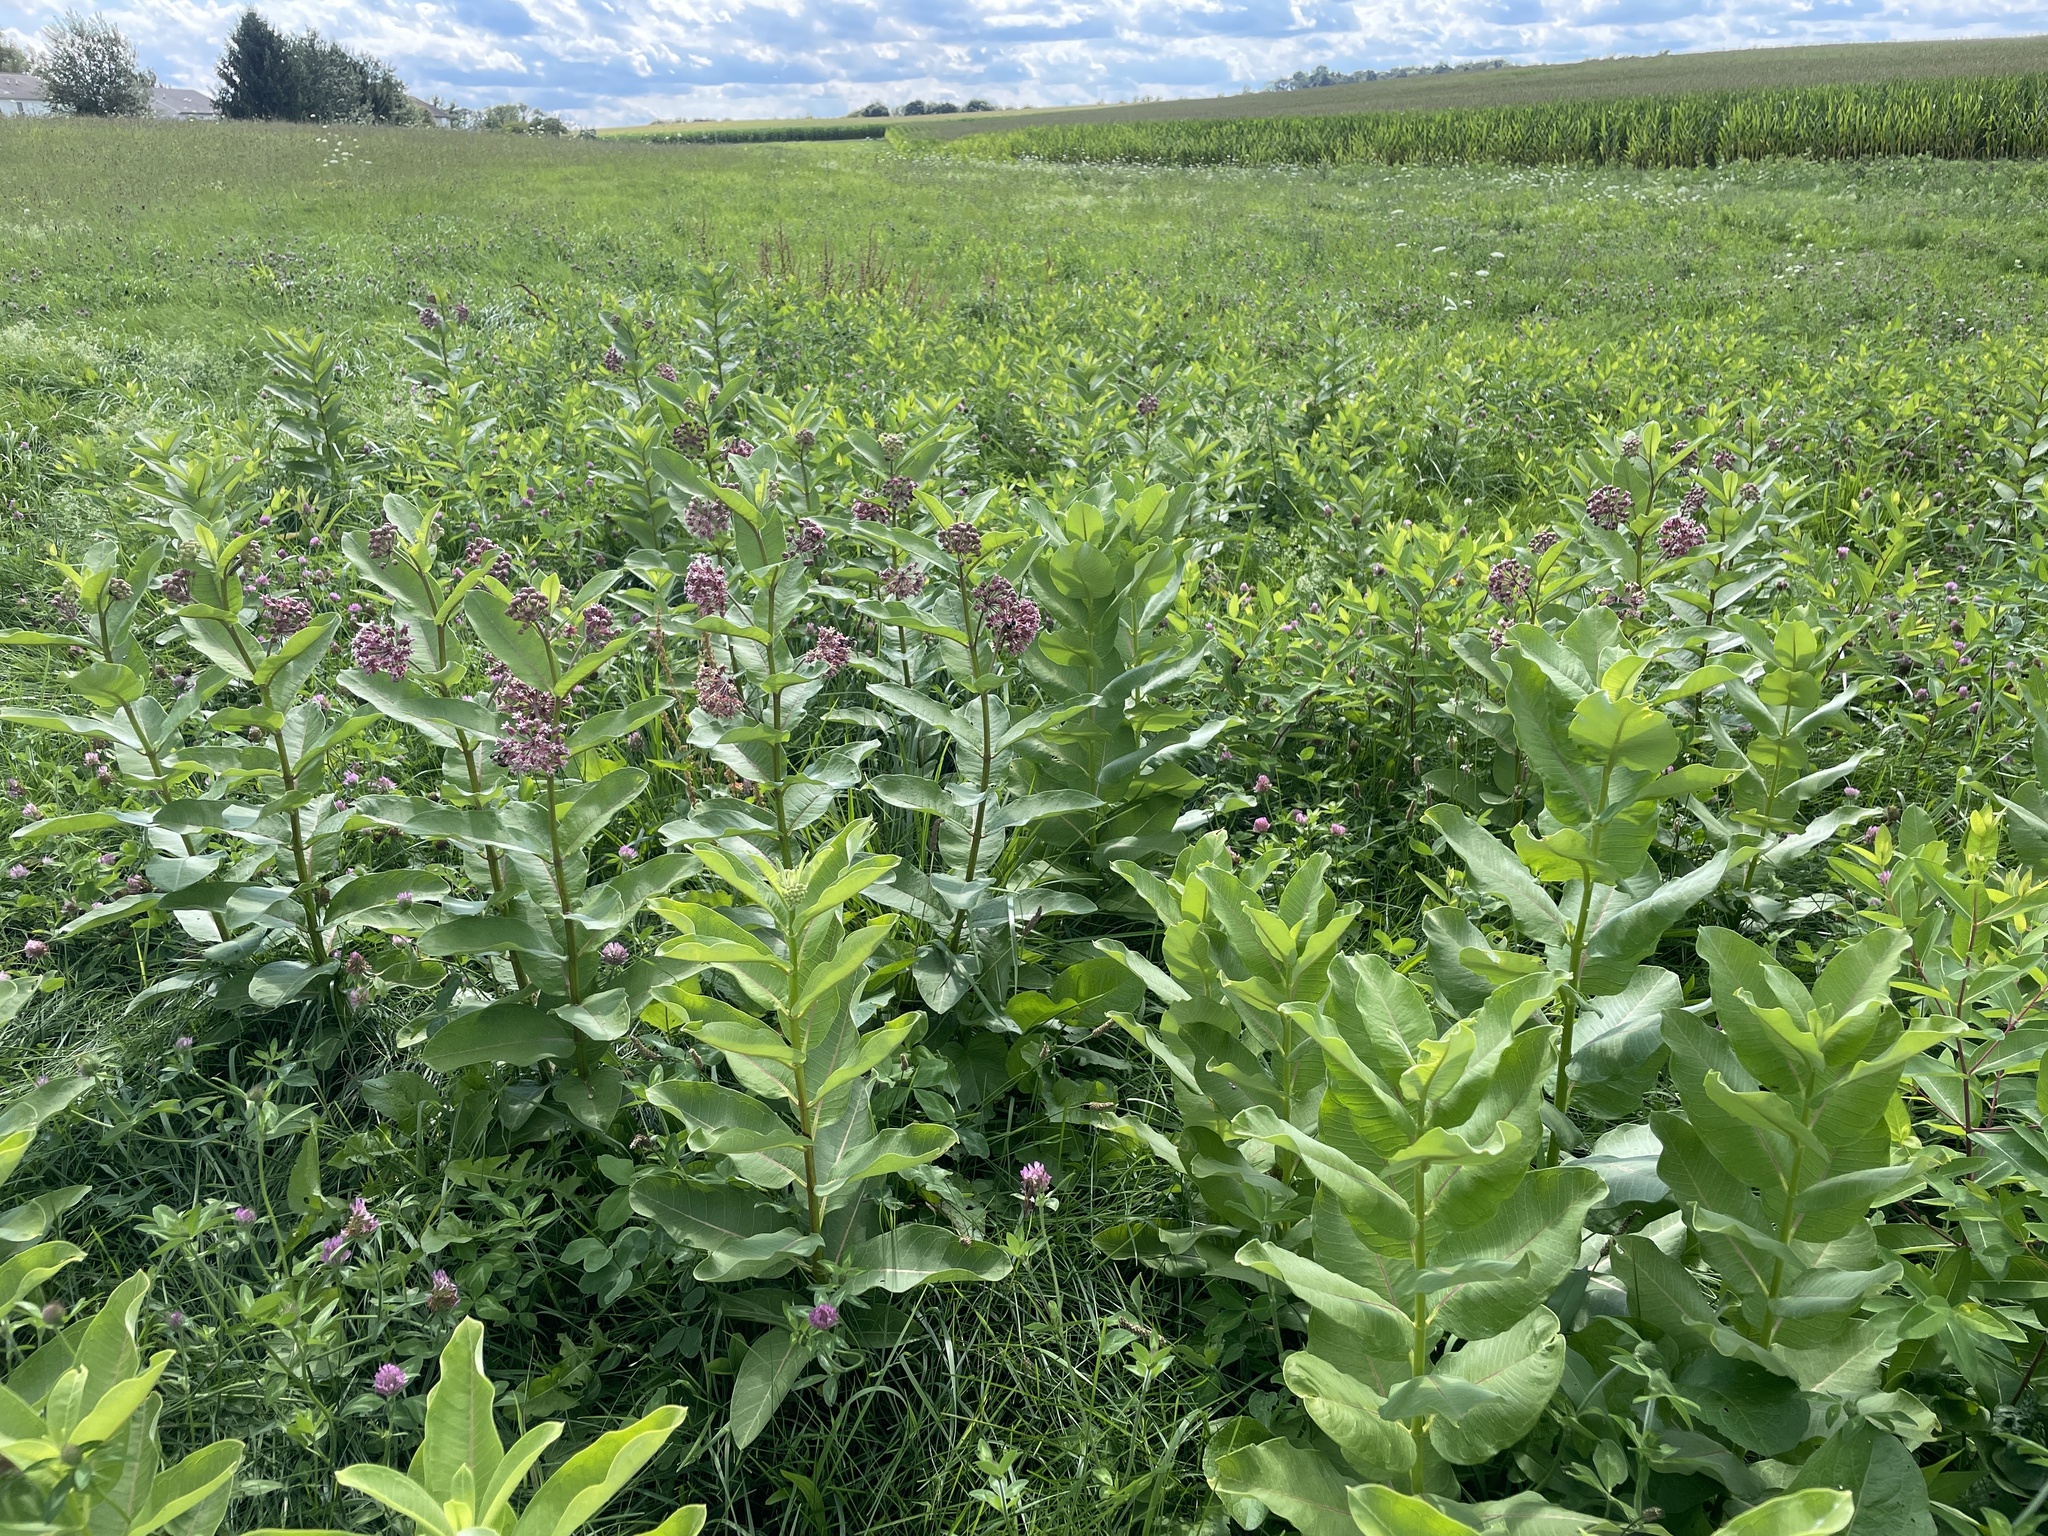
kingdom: Plantae
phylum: Tracheophyta
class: Magnoliopsida
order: Gentianales
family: Apocynaceae
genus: Asclepias
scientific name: Asclepias syriaca
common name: Common milkweed
